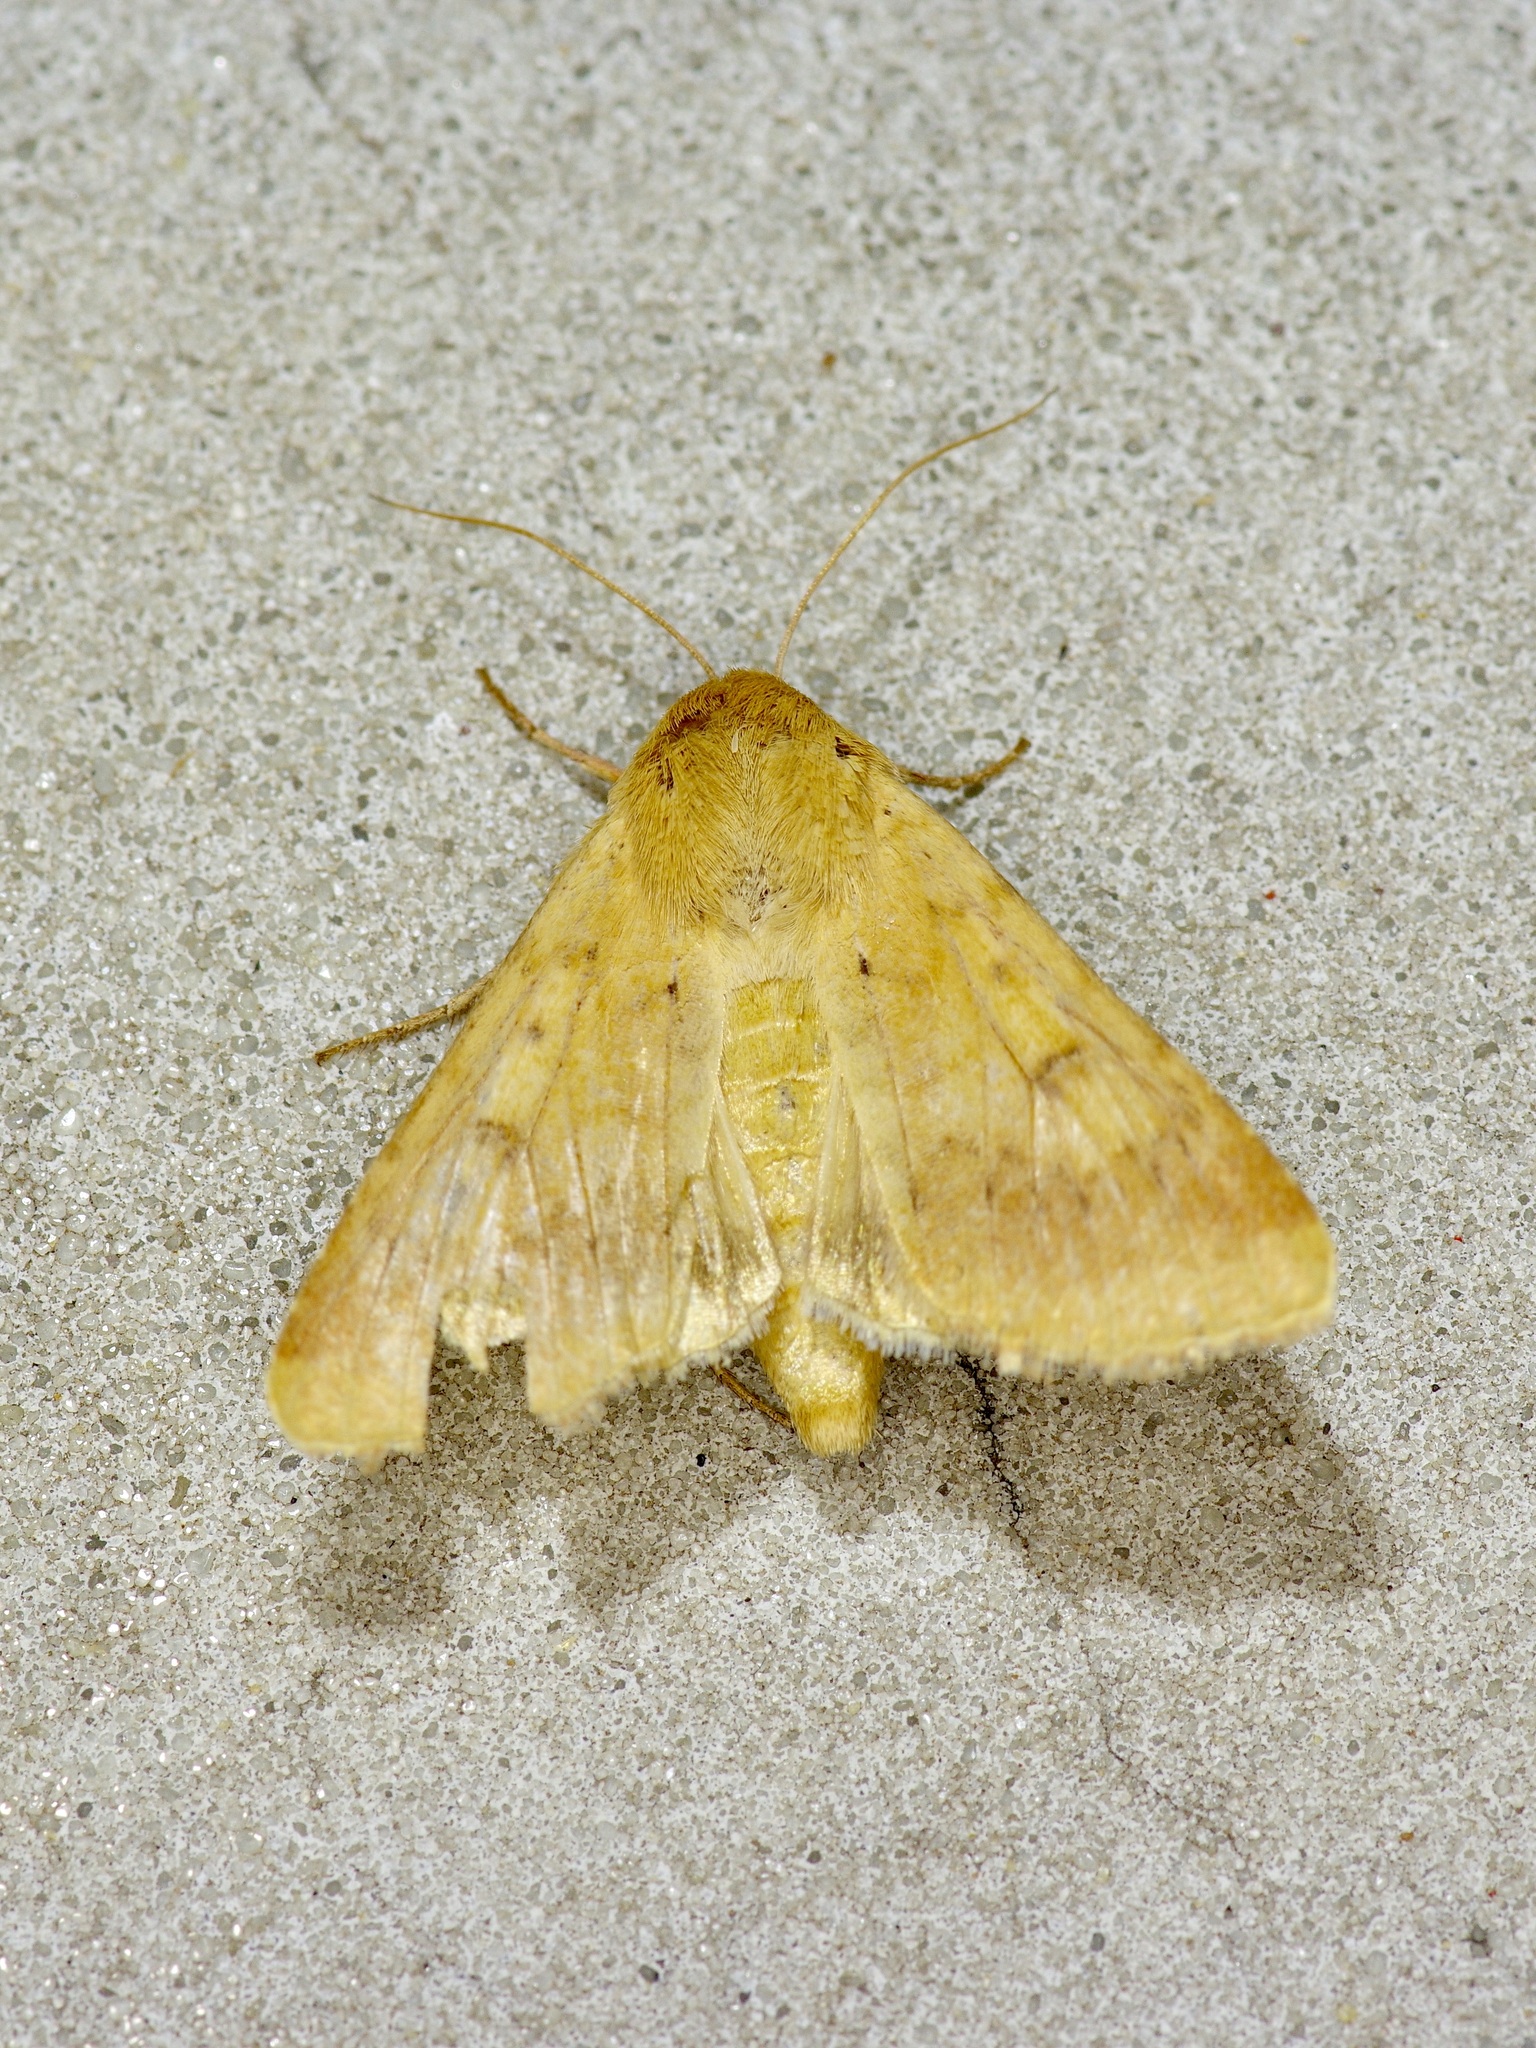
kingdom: Animalia
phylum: Arthropoda
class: Insecta
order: Lepidoptera
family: Noctuidae
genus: Helicoverpa
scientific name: Helicoverpa zea
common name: Bollworm
